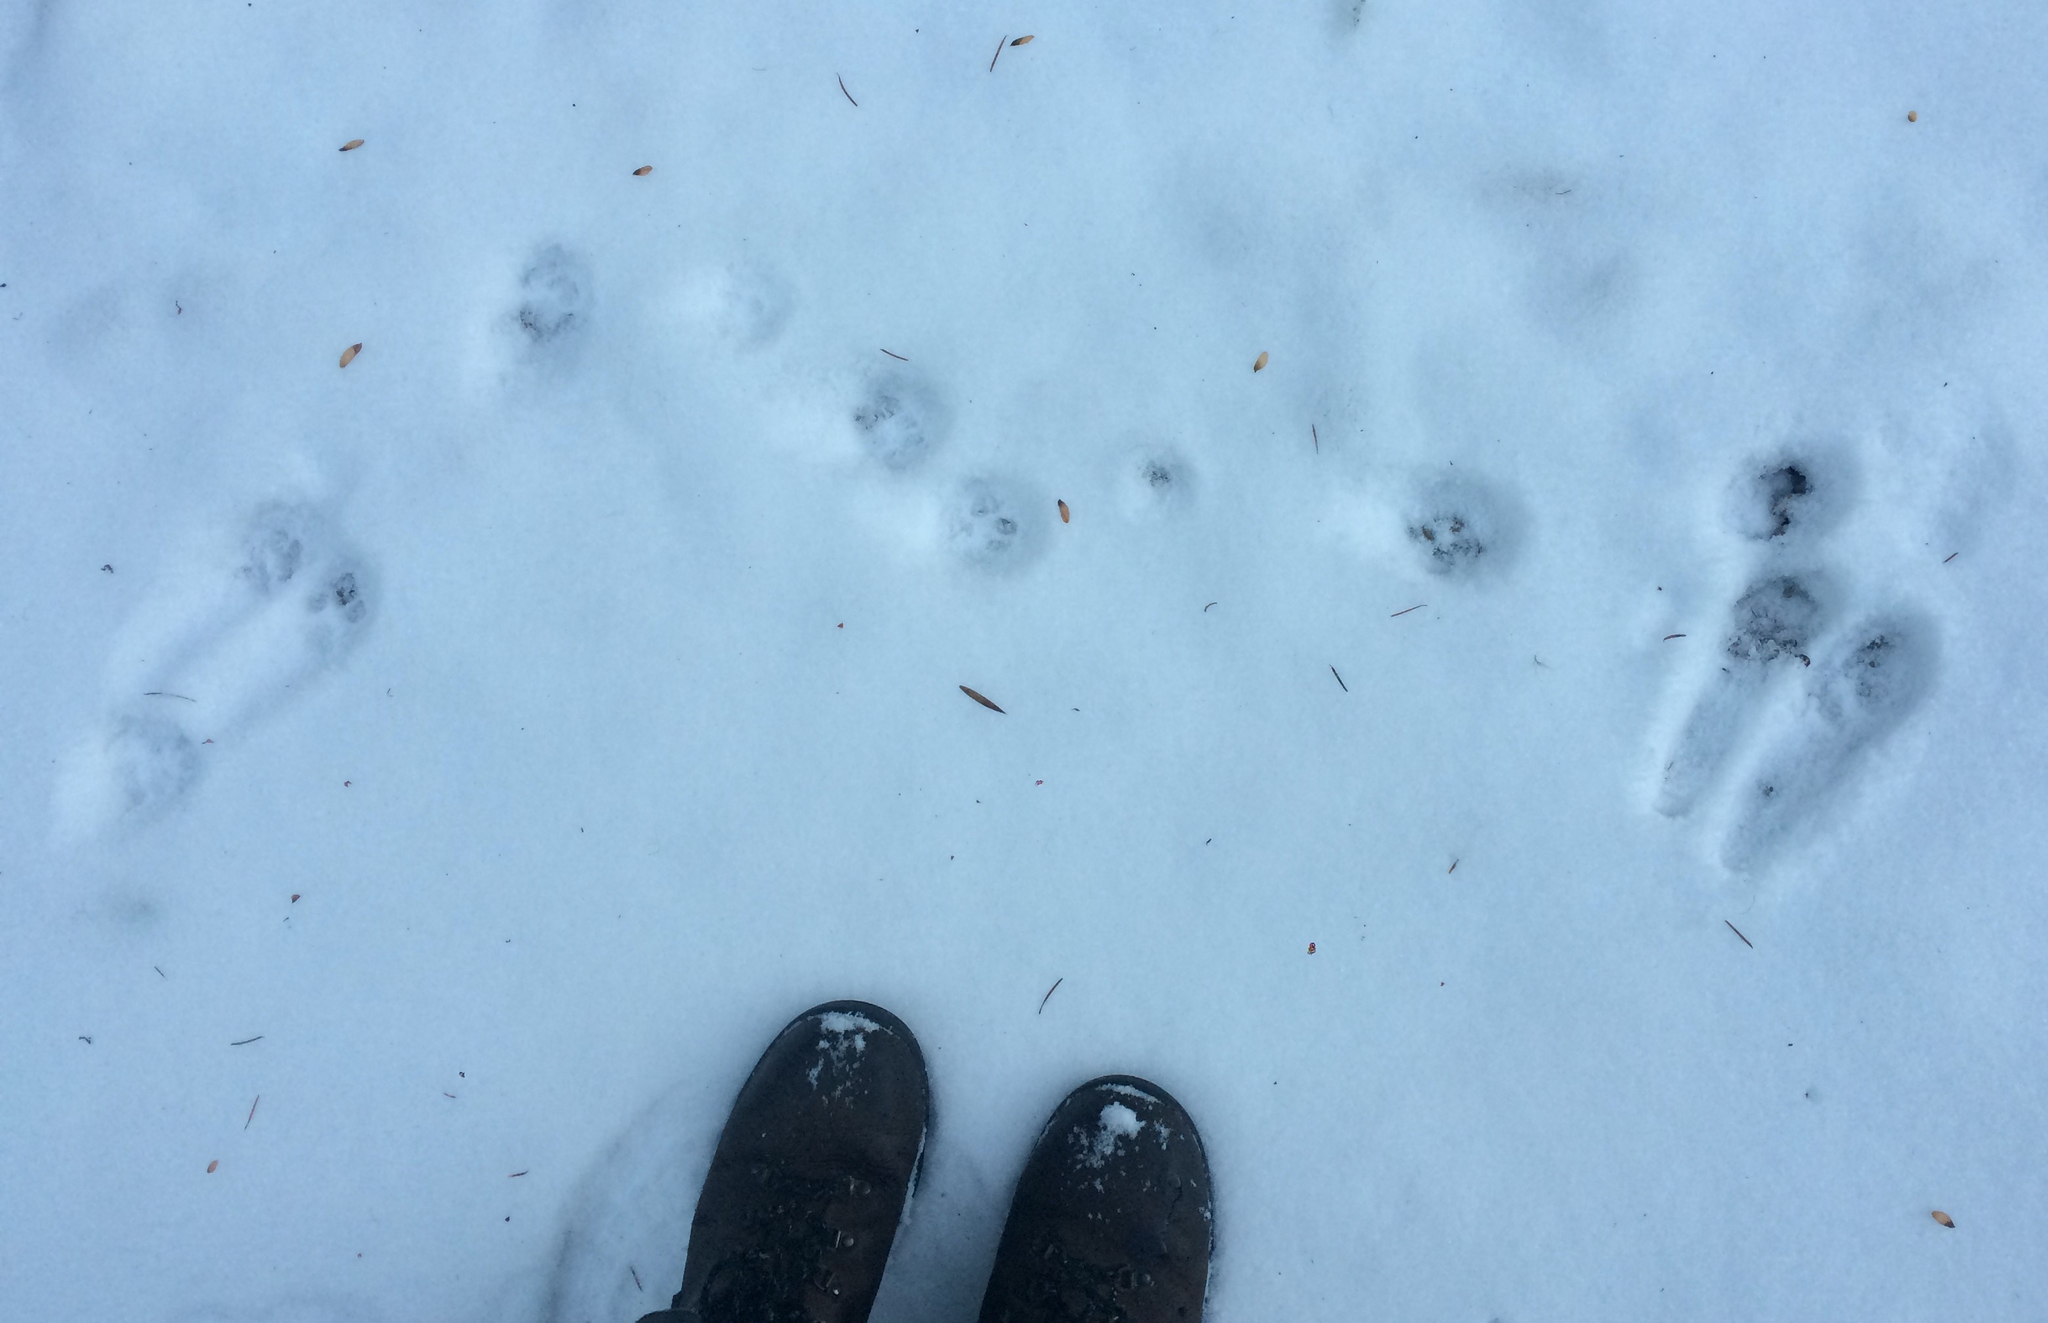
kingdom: Animalia
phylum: Chordata
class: Mammalia
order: Carnivora
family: Felidae
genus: Felis
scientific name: Felis catus
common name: Domestic cat
